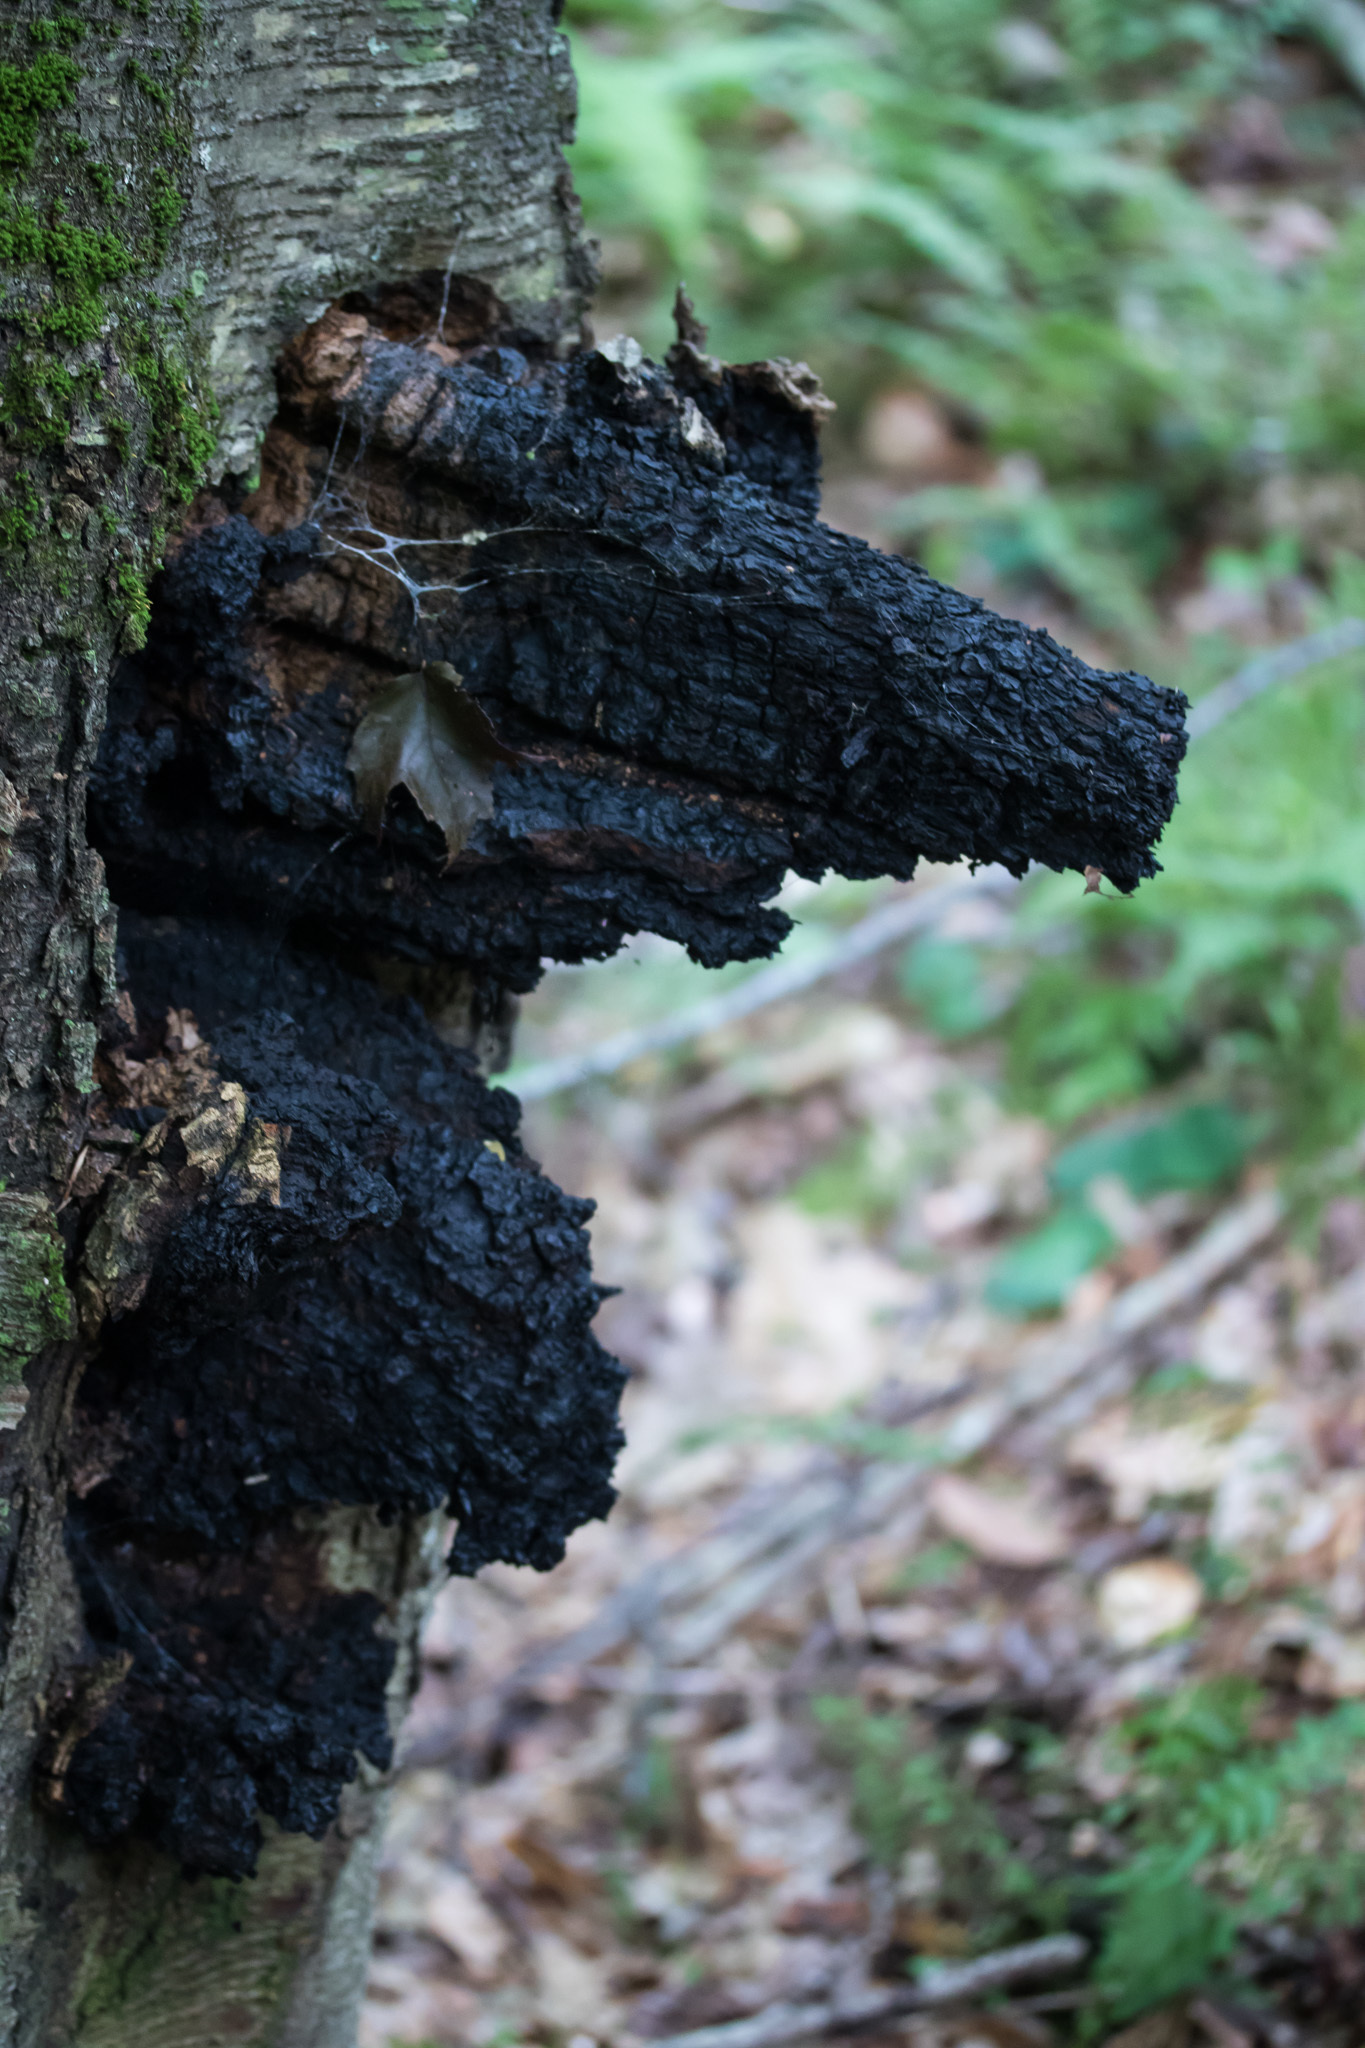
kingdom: Fungi
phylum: Basidiomycota
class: Agaricomycetes
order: Hymenochaetales
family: Hymenochaetaceae
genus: Inonotus
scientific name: Inonotus obliquus
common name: Chaga
